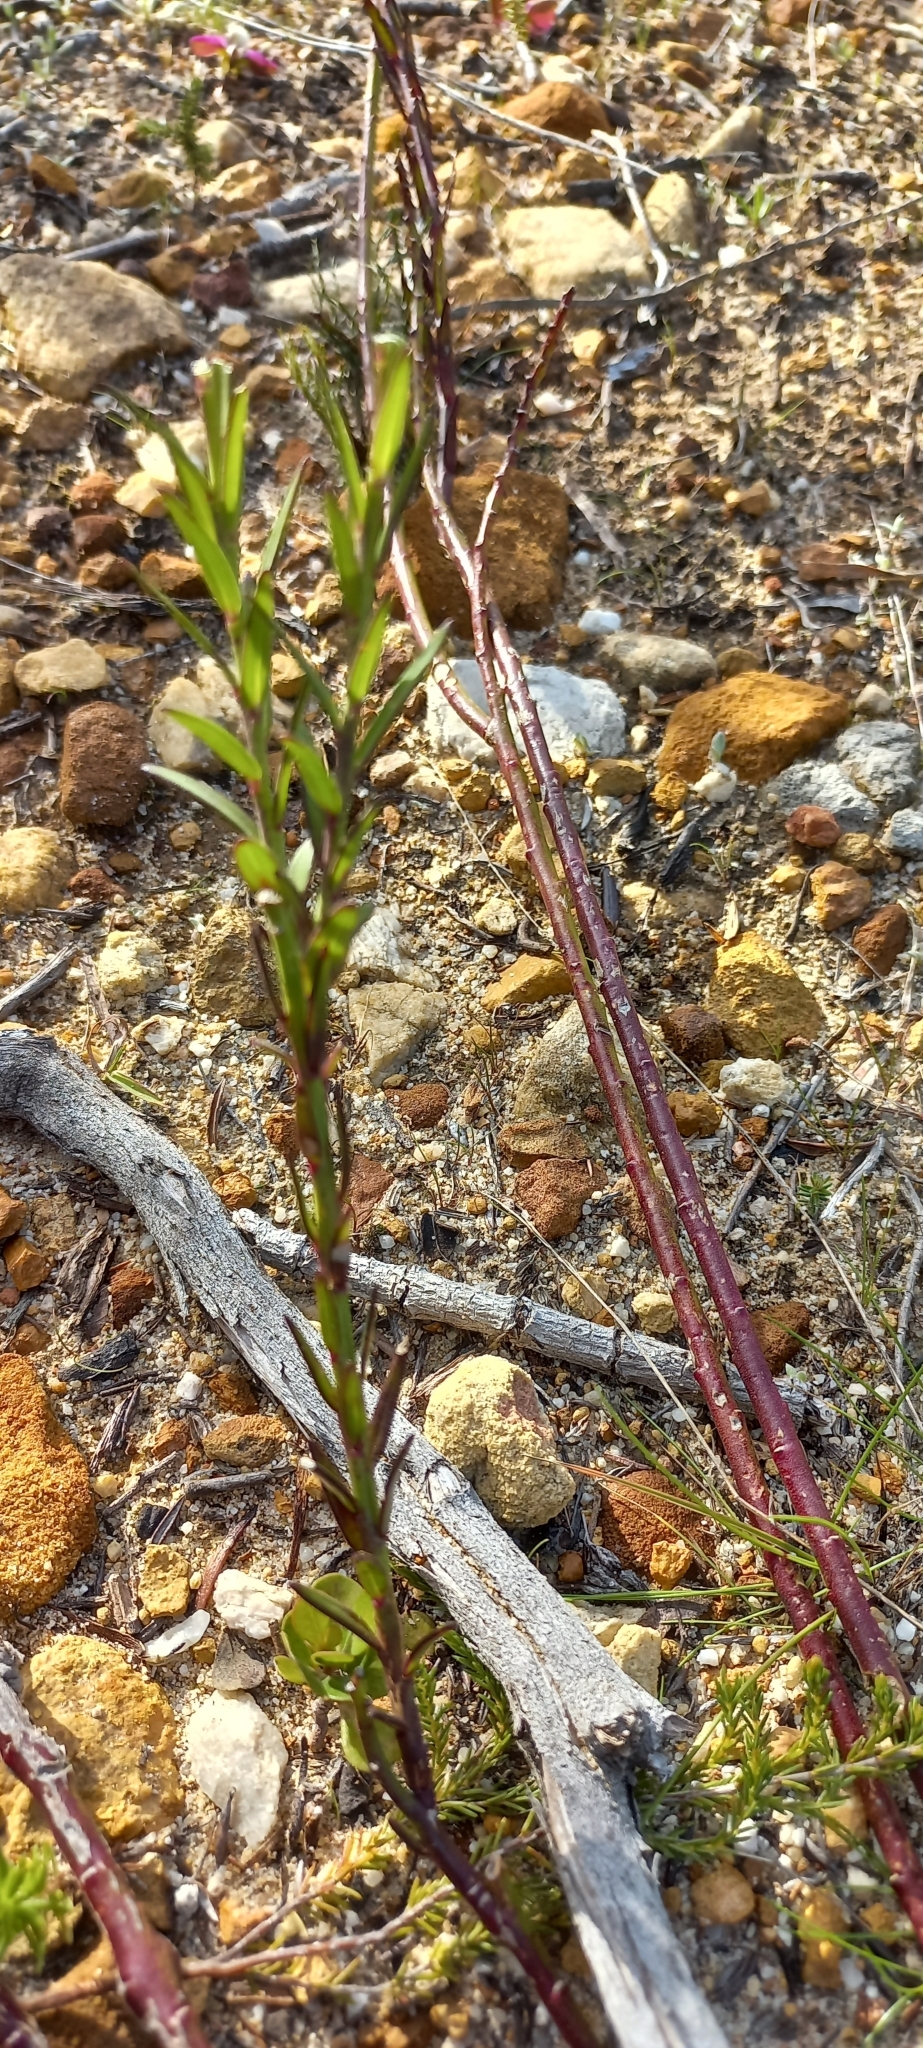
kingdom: Plantae
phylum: Tracheophyta
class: Magnoliopsida
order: Fabales
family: Polygalaceae
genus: Polygala
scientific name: Polygala bracteolata
